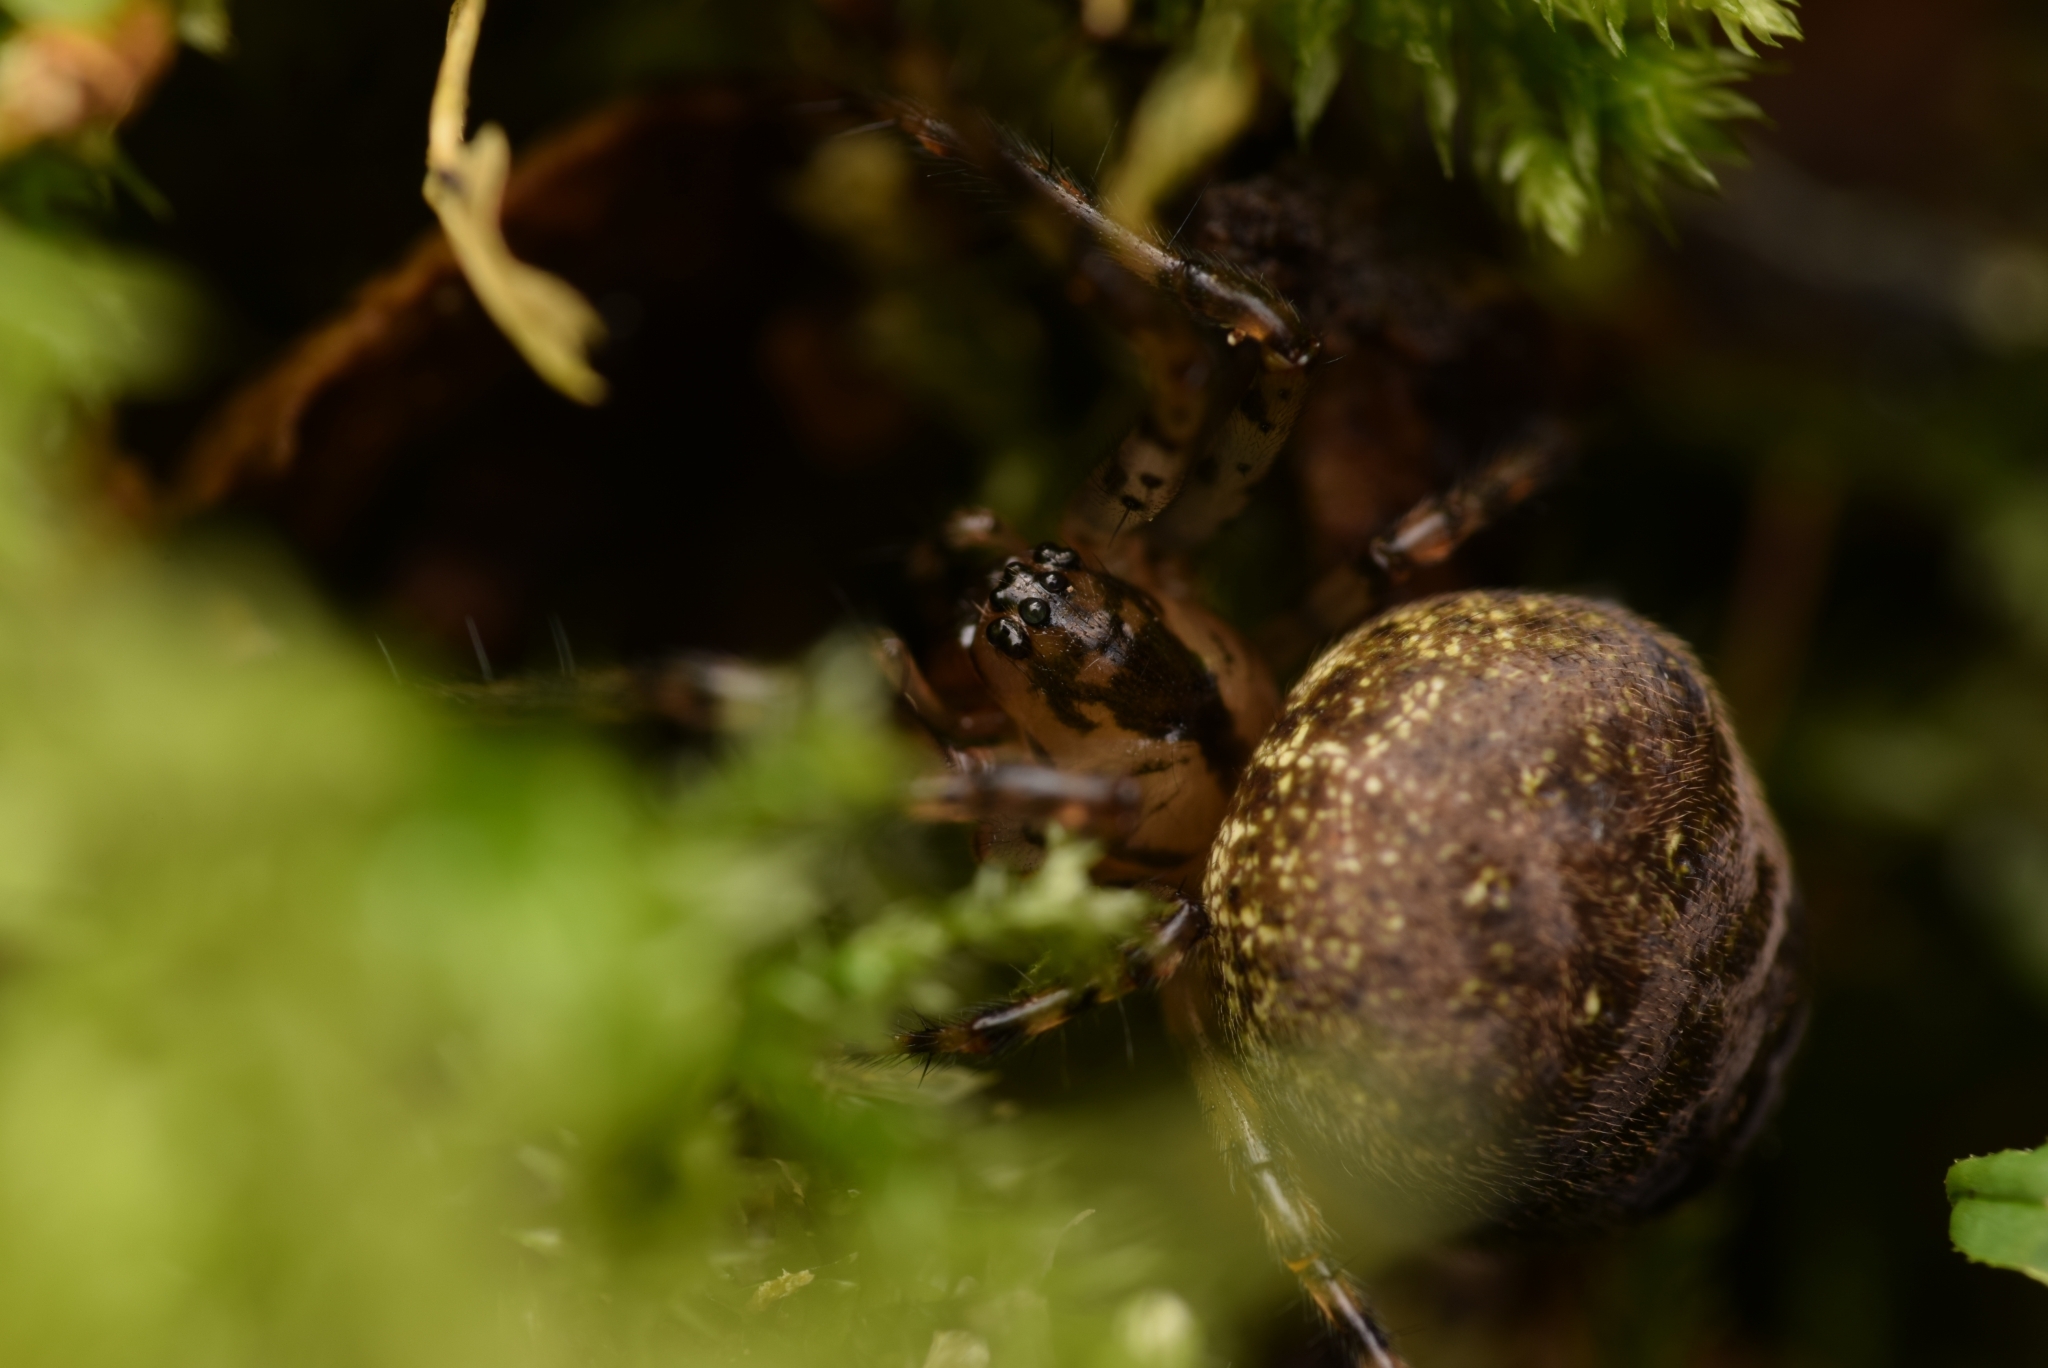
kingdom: Animalia
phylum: Arthropoda
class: Arachnida
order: Araneae
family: Tetragnathidae
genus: Metellina
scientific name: Metellina merianae
